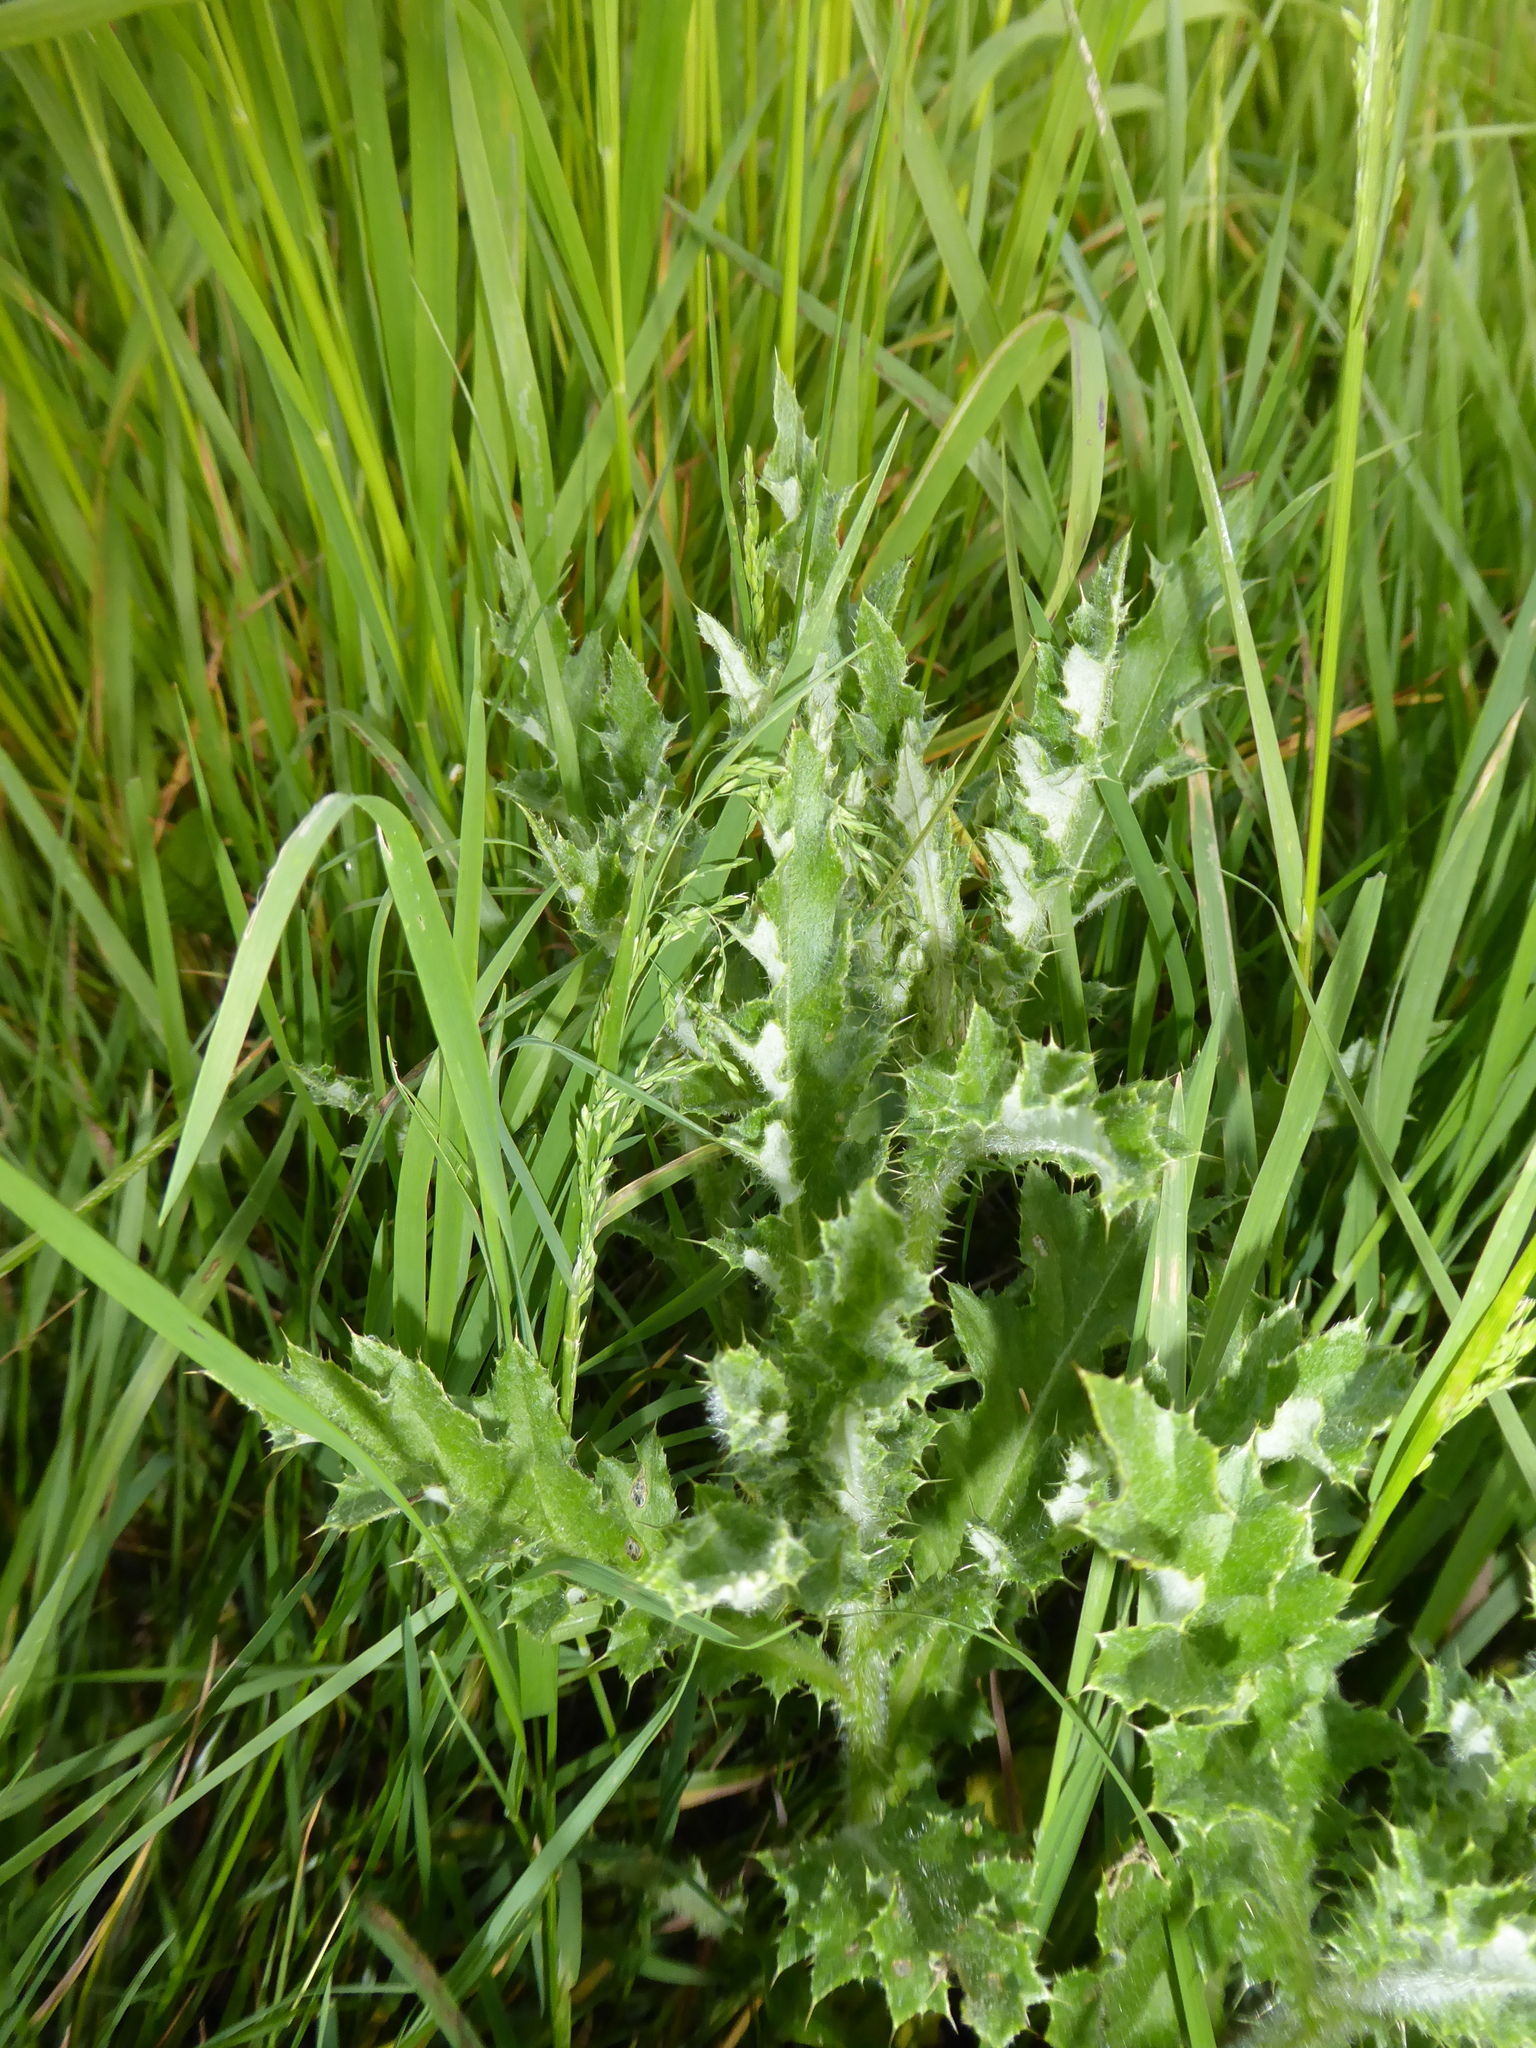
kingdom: Plantae
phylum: Tracheophyta
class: Magnoliopsida
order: Asterales
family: Asteraceae
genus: Cirsium
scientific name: Cirsium arvense
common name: Creeping thistle
